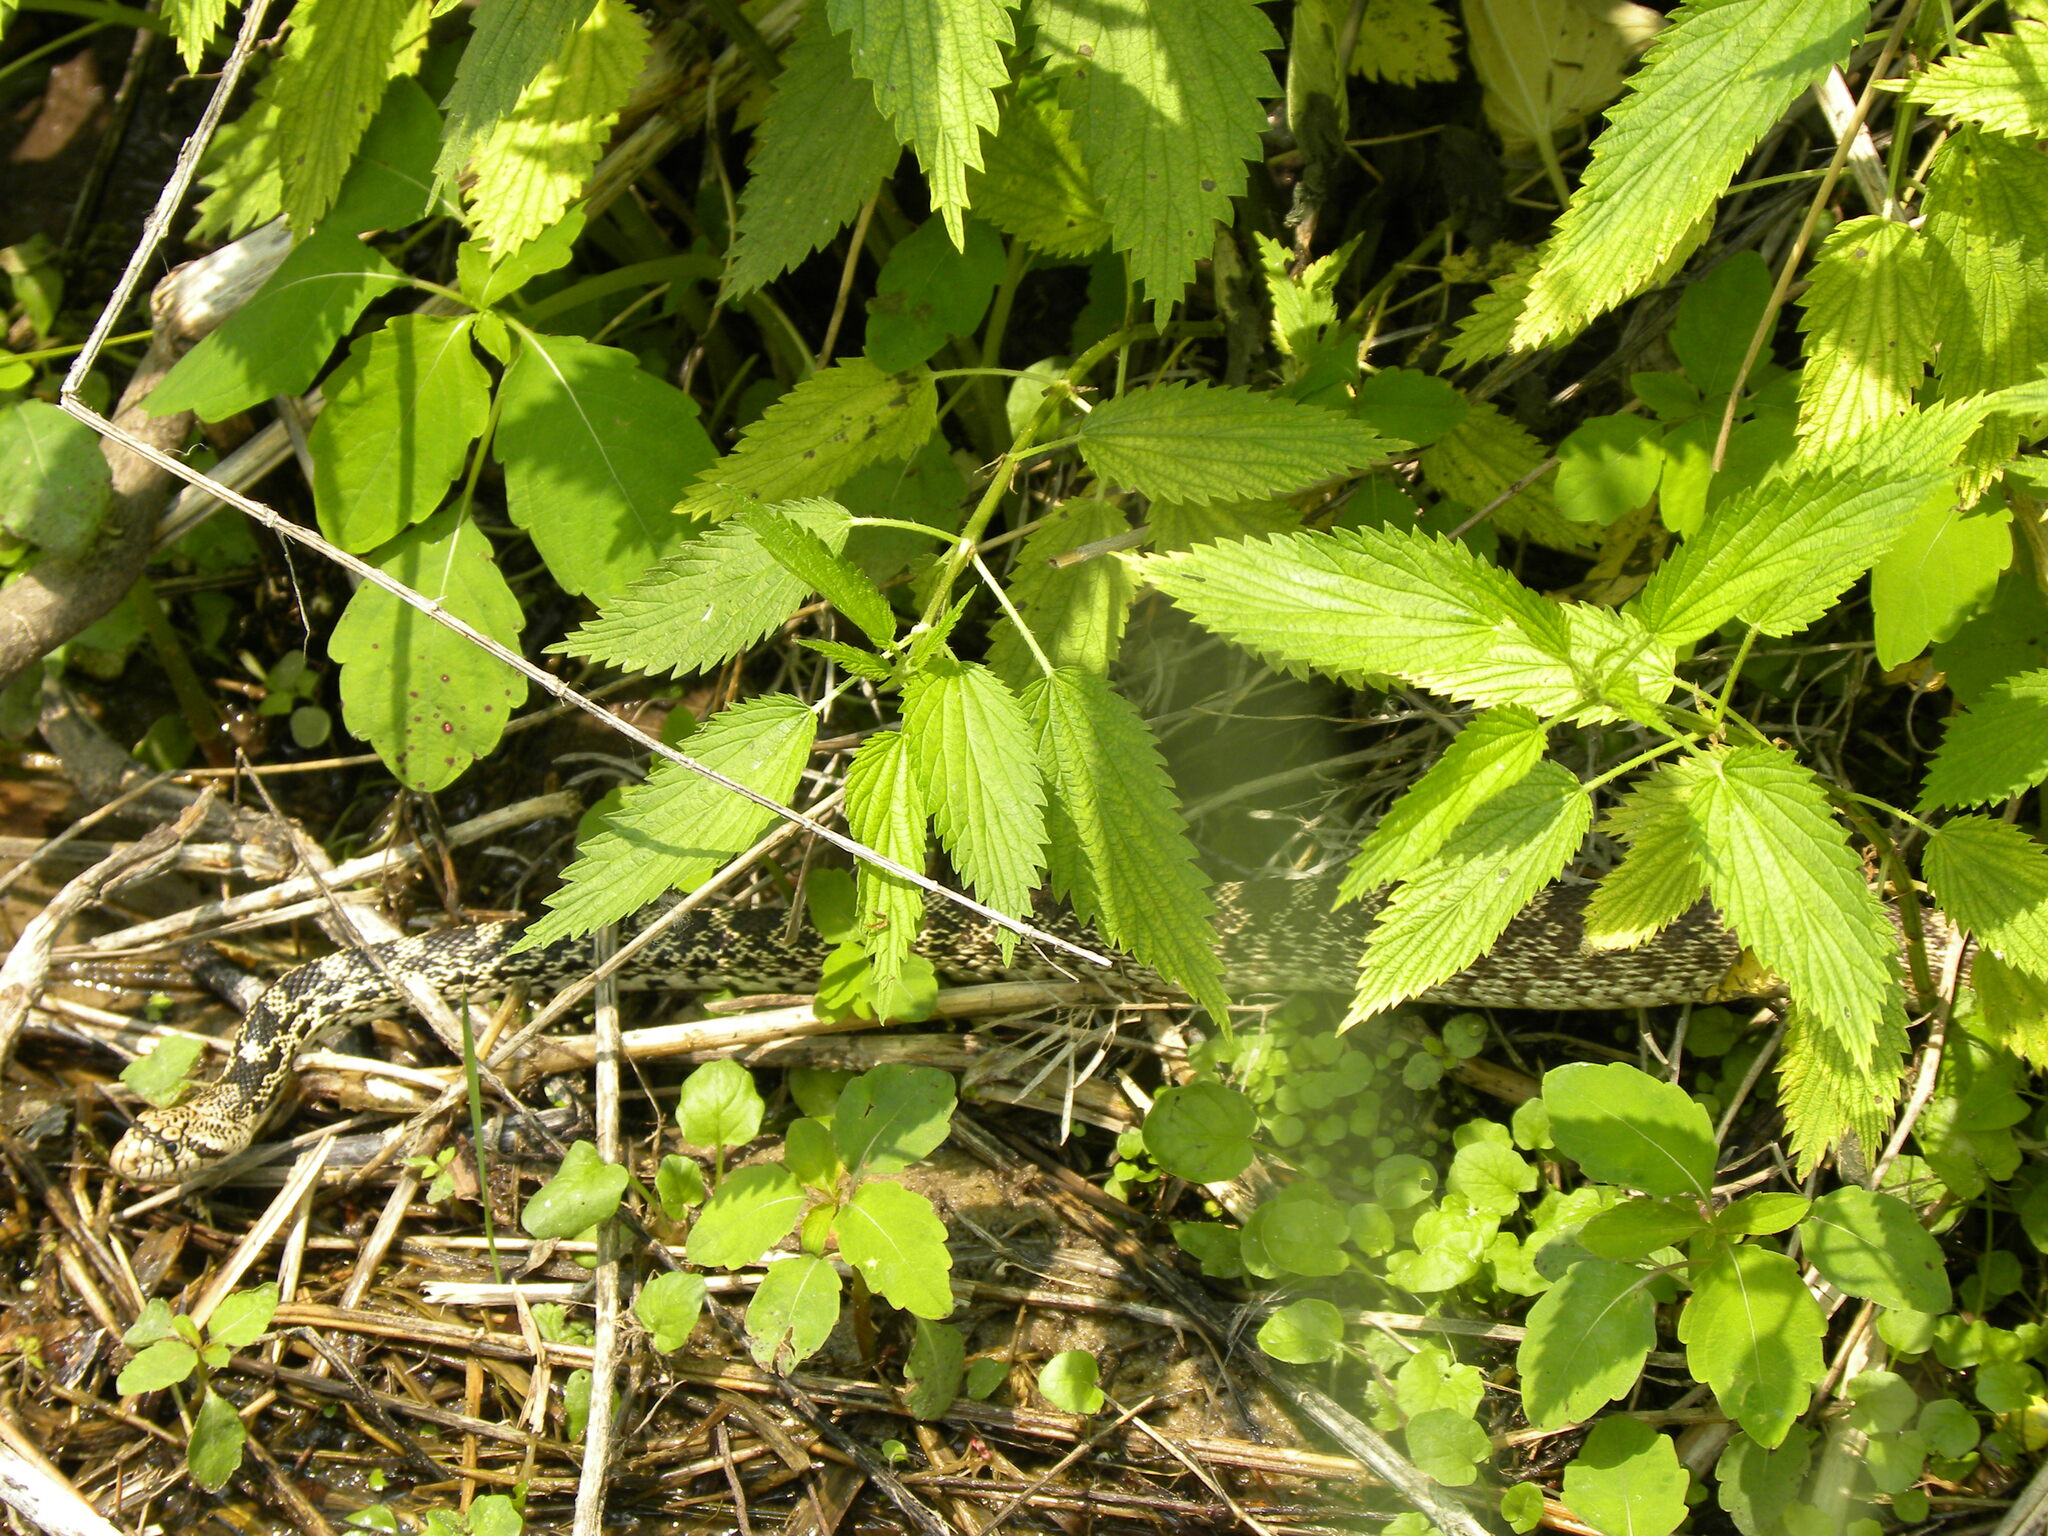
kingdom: Animalia
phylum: Chordata
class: Squamata
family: Colubridae
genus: Pituophis
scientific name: Pituophis catenifer
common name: Gopher snake
